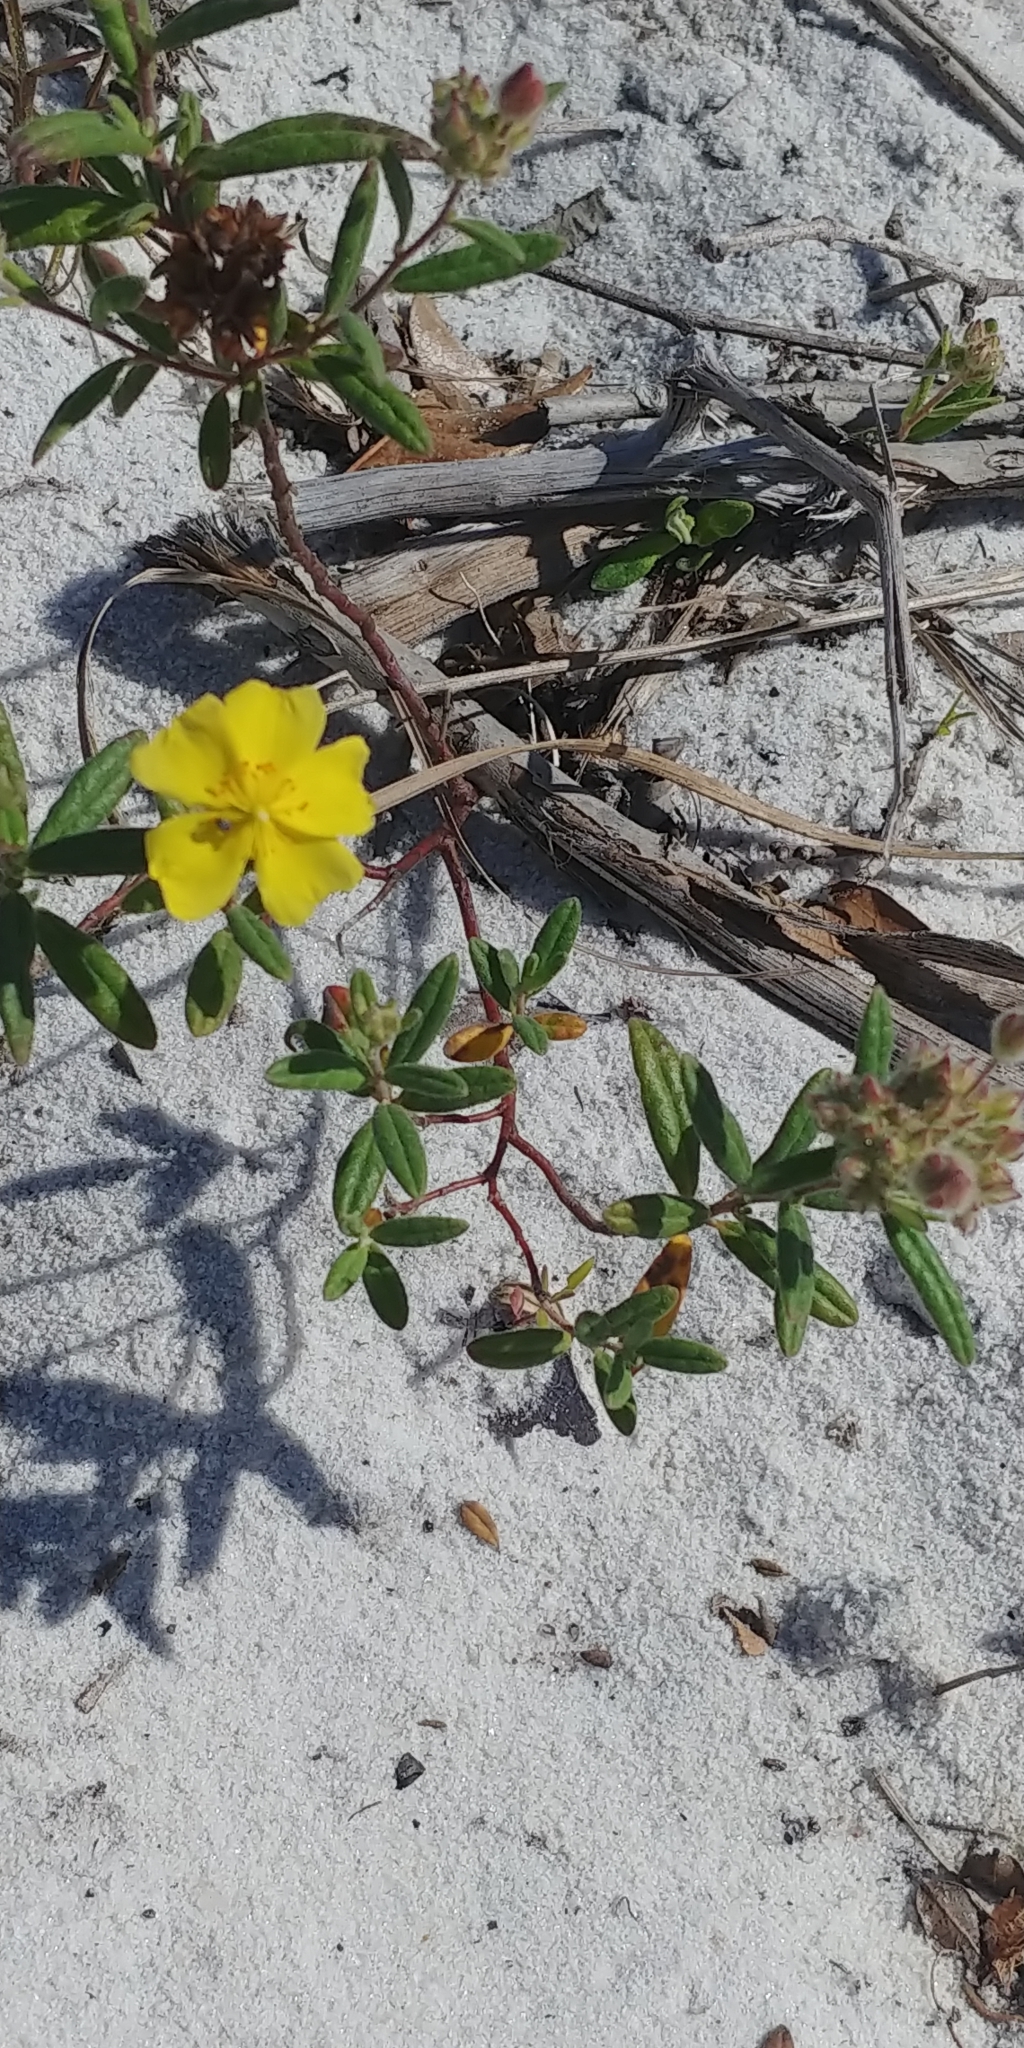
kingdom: Plantae
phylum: Tracheophyta
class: Magnoliopsida
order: Malvales
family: Cistaceae
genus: Crocanthemum
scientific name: Crocanthemum corymbosum
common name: Pinebarren sun-rose
